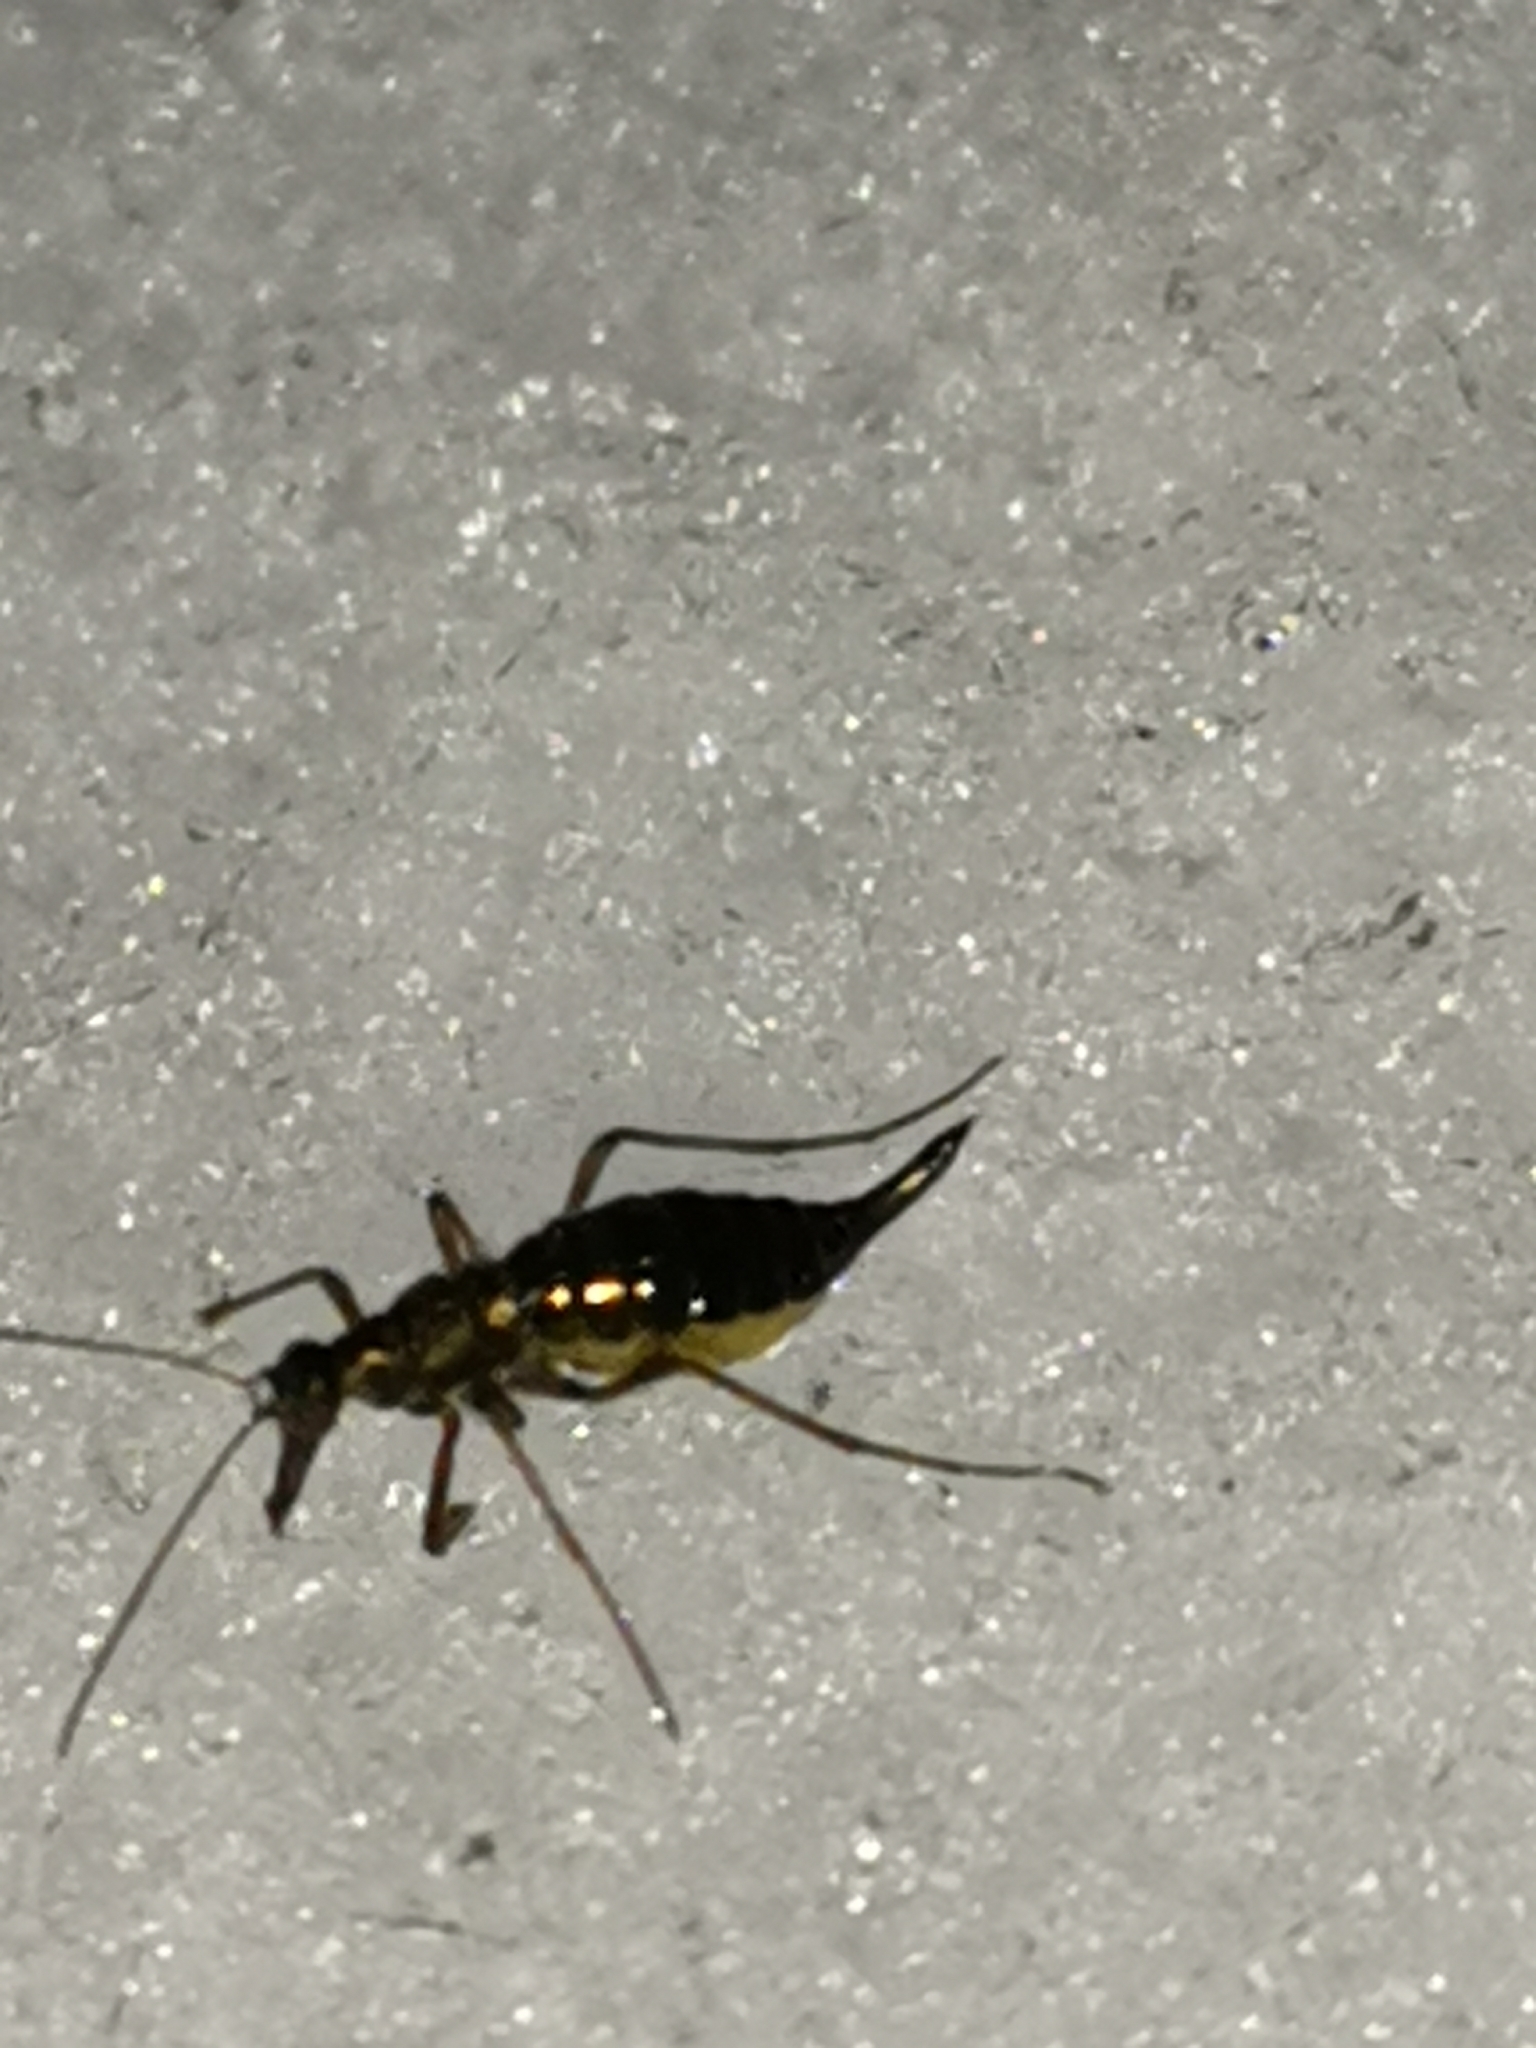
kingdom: Animalia
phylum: Arthropoda
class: Insecta
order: Mecoptera
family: Boreidae
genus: Boreus
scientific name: Boreus westwoodi
